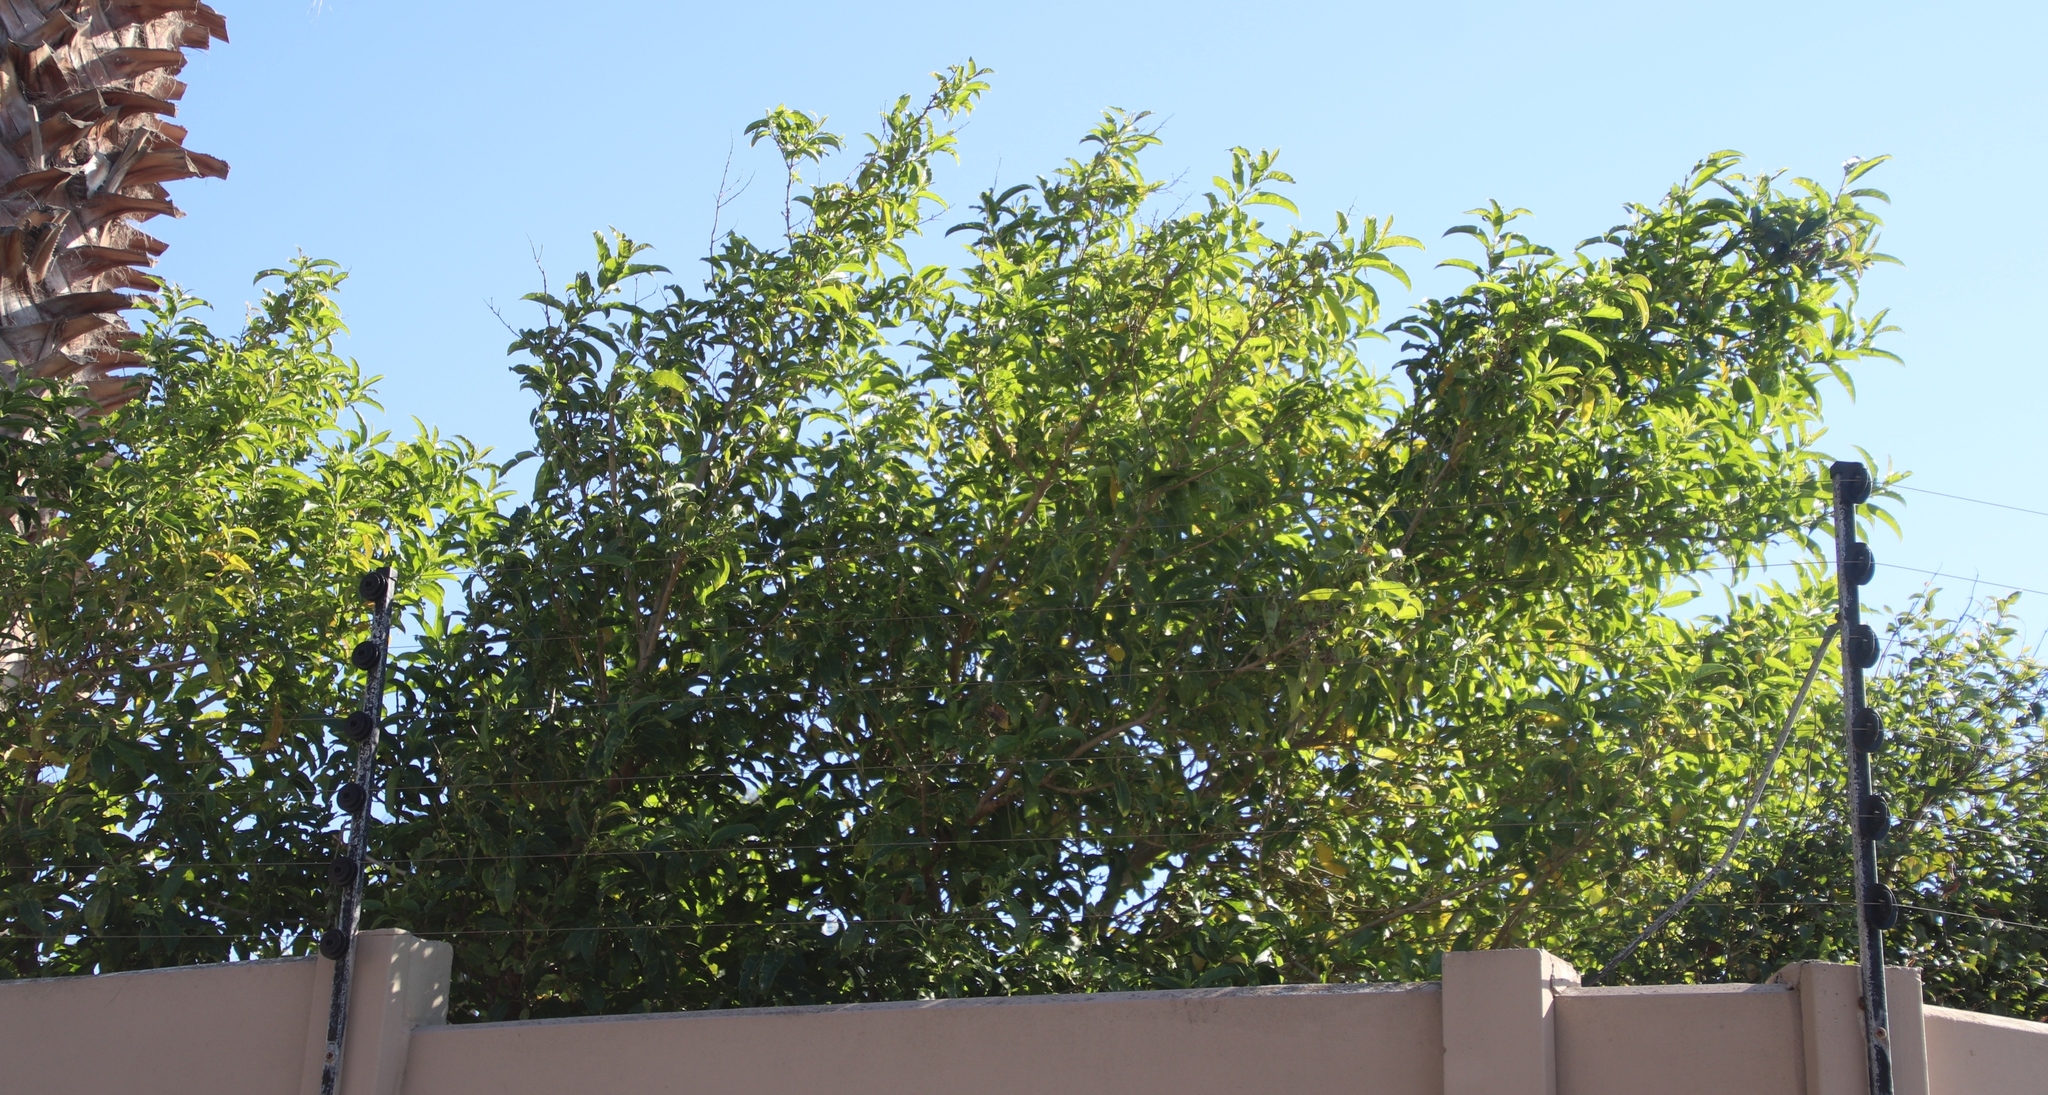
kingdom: Plantae
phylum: Tracheophyta
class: Magnoliopsida
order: Solanales
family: Solanaceae
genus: Cestrum
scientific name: Cestrum laevigatum
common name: Inkberry
